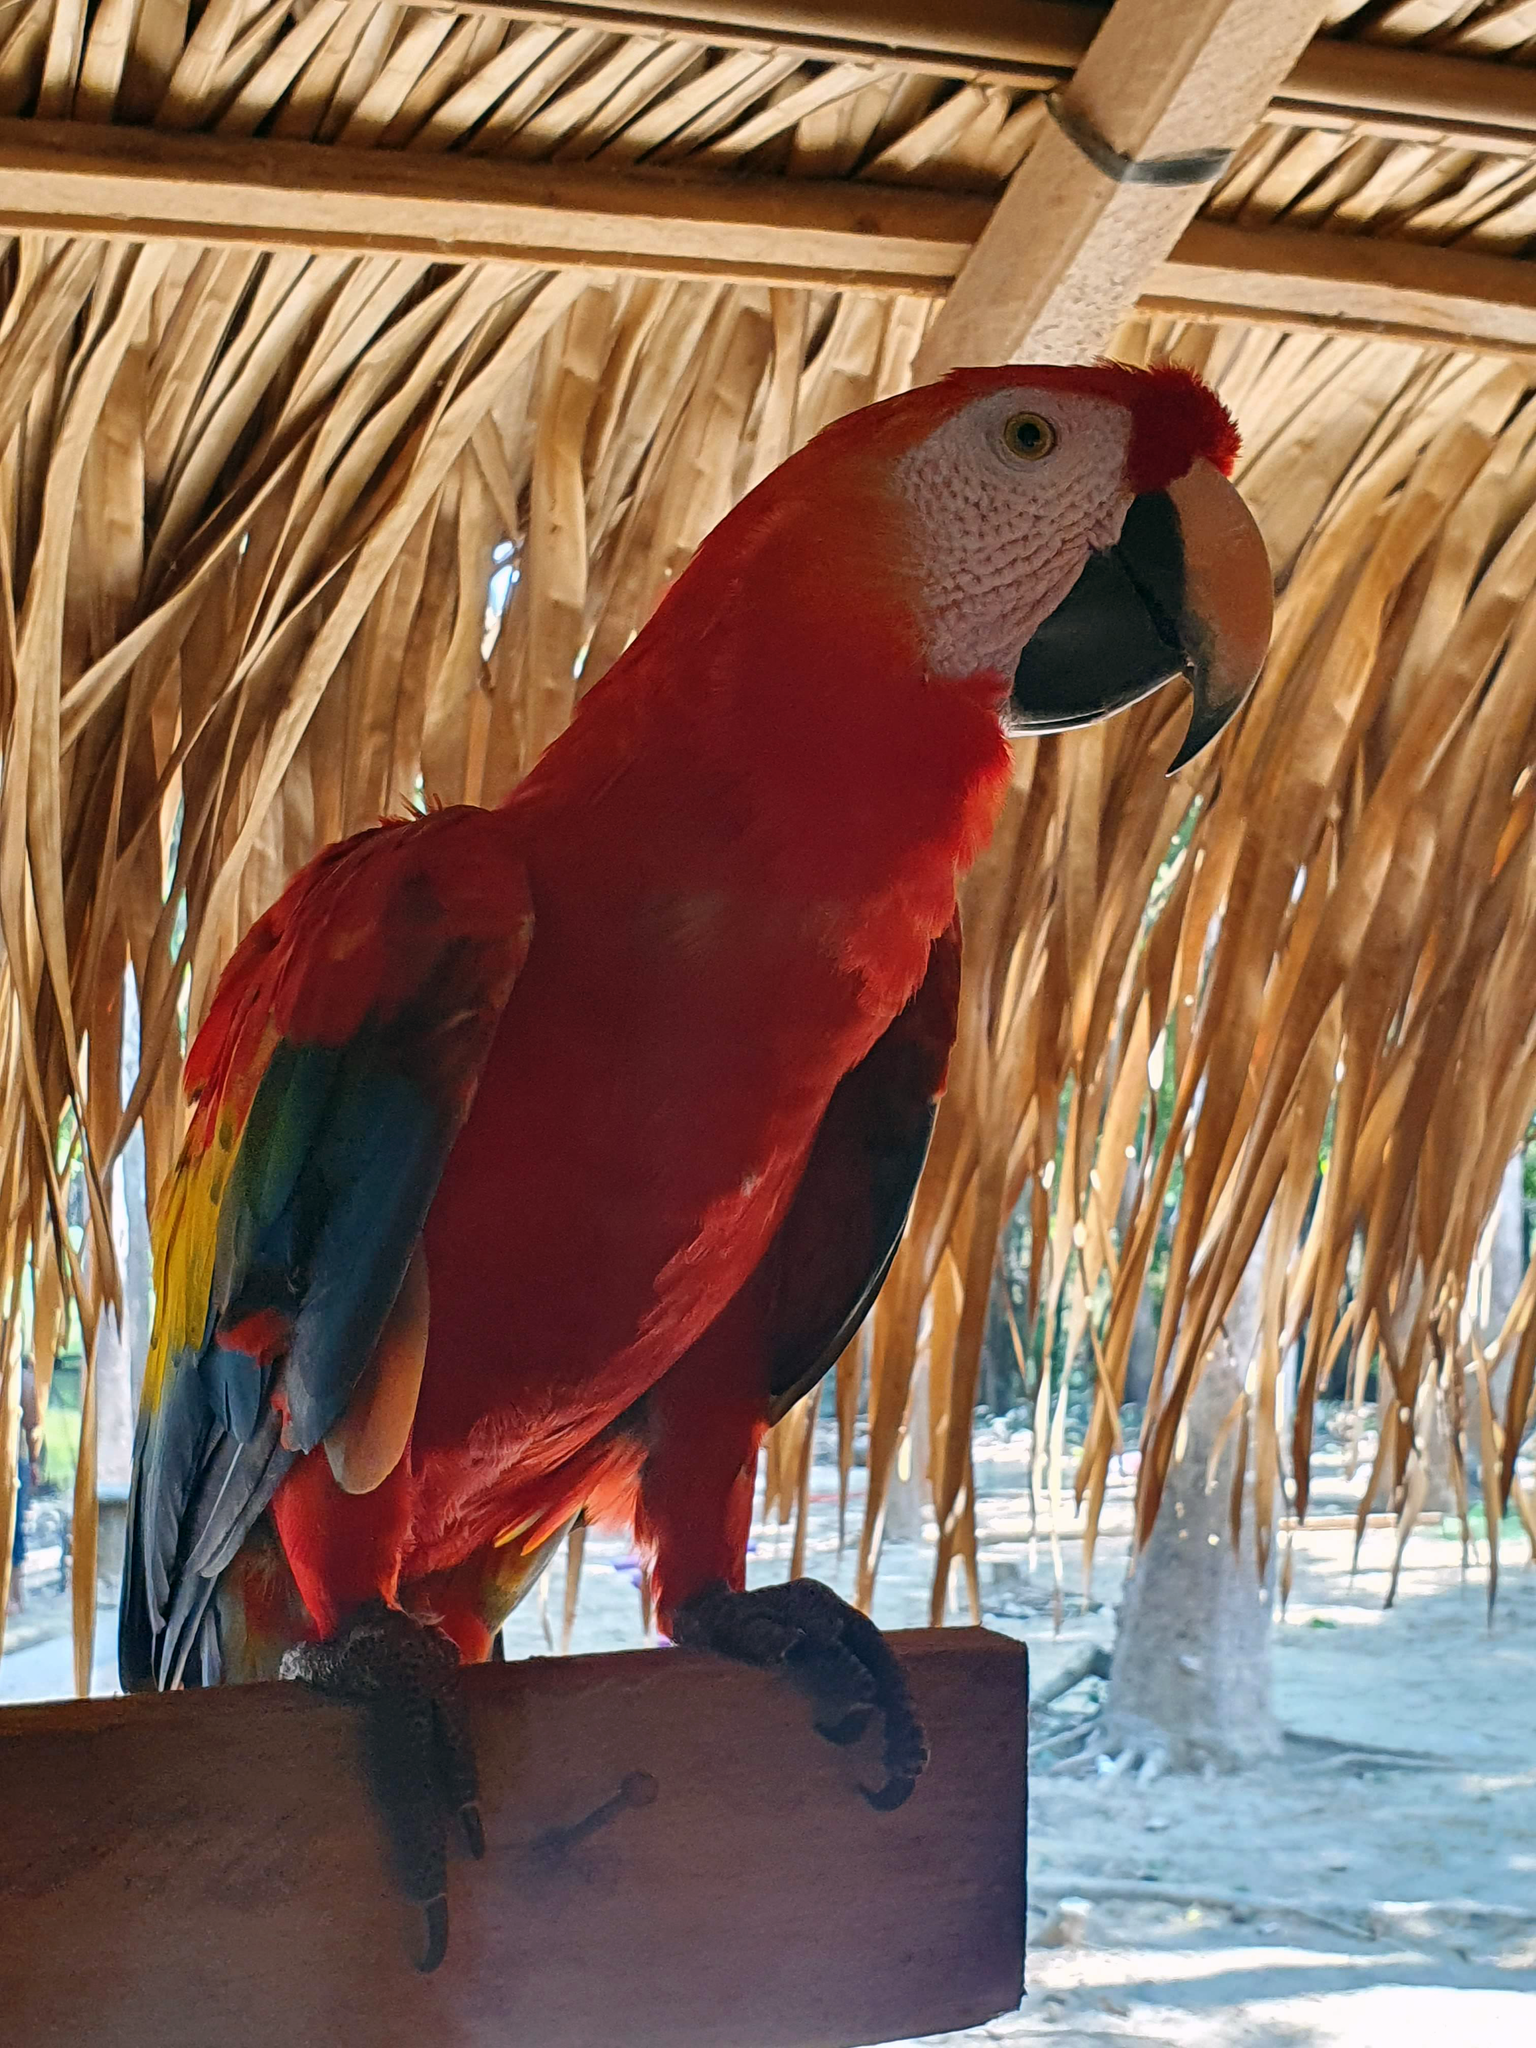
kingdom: Animalia
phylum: Chordata
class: Aves
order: Psittaciformes
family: Psittacidae
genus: Ara
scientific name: Ara macao
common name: Scarlet macaw
